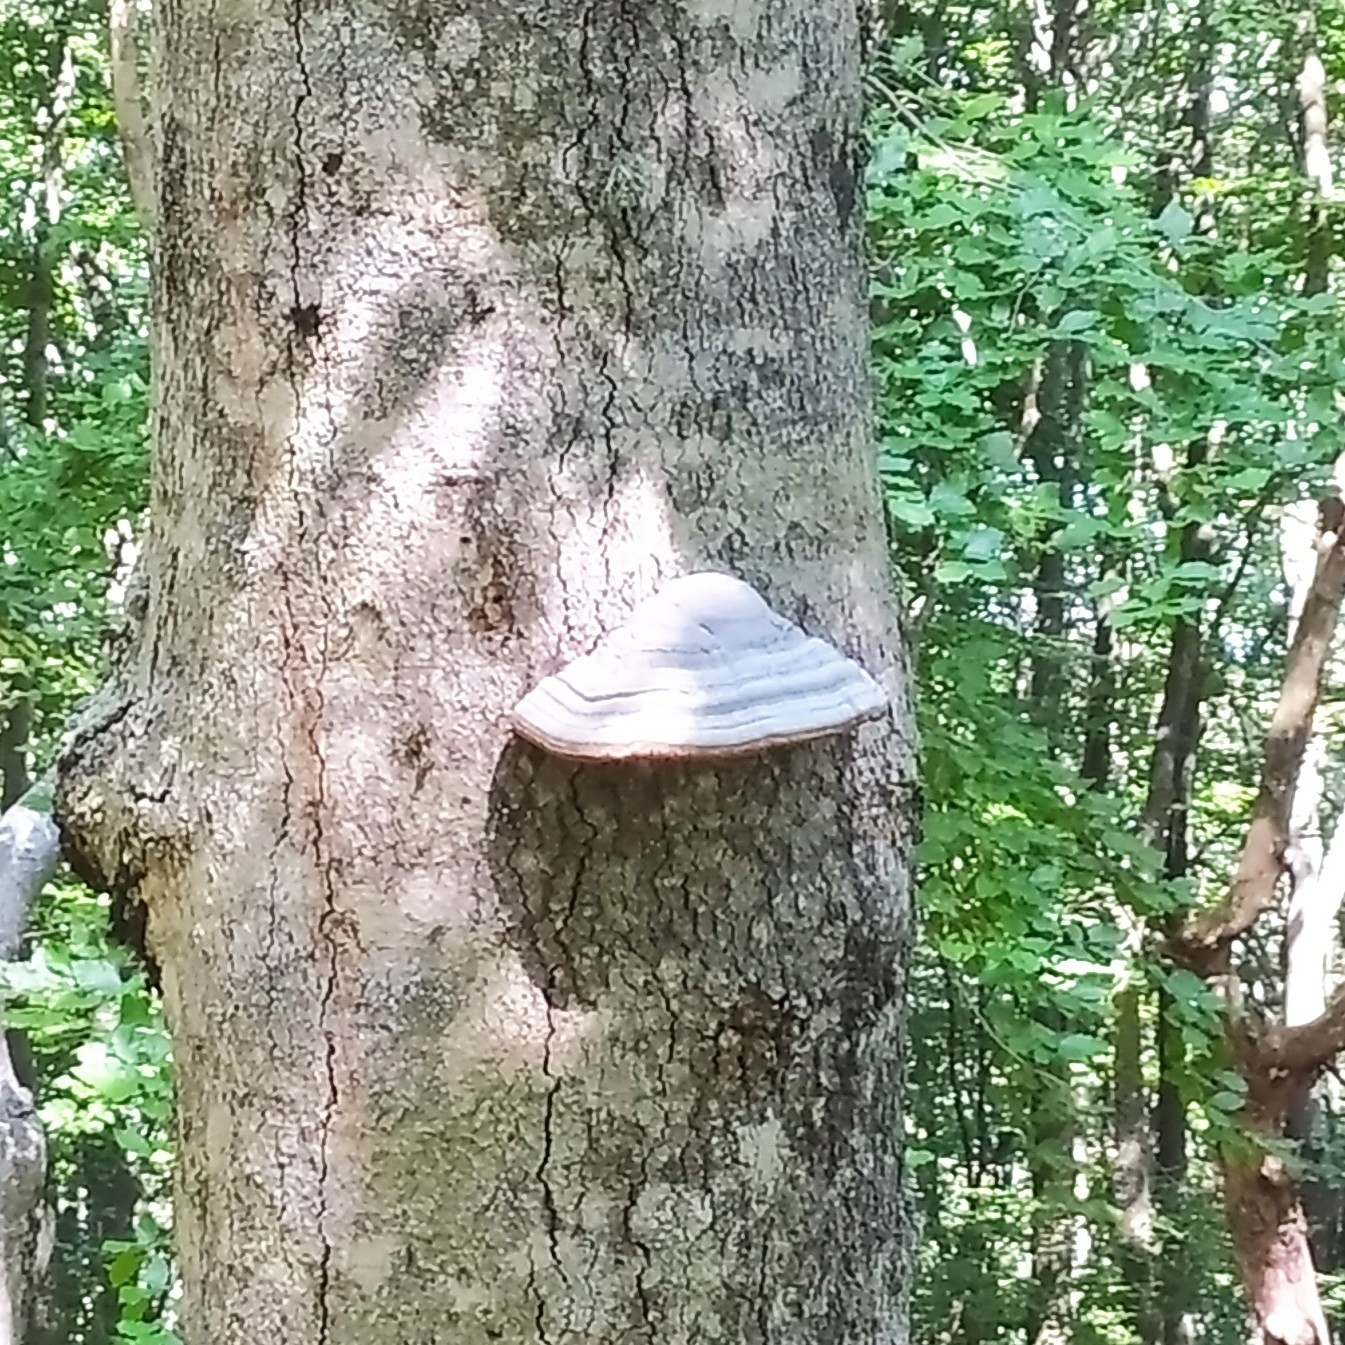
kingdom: Fungi
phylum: Basidiomycota
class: Agaricomycetes
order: Polyporales
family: Polyporaceae
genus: Fomes
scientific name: Fomes fomentarius
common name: Hoof fungus
